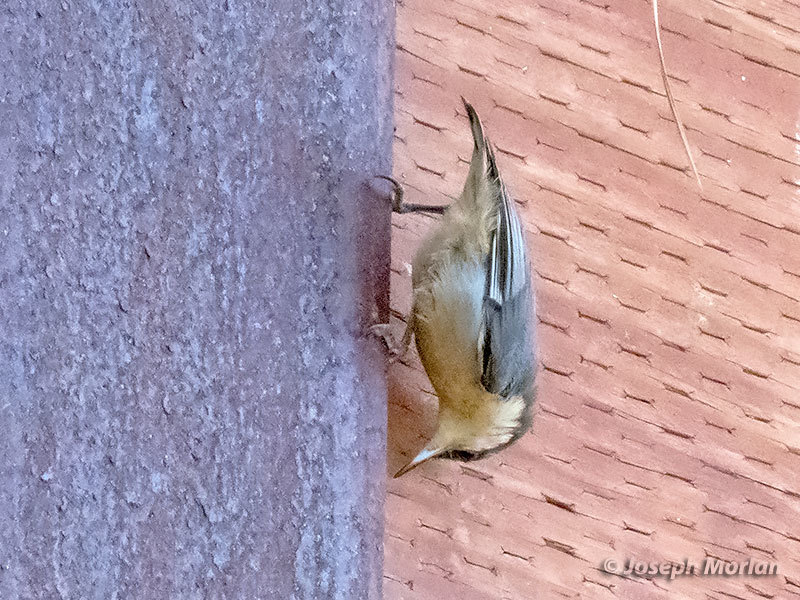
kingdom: Animalia
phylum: Chordata
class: Aves
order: Passeriformes
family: Sittidae
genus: Sitta
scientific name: Sitta pygmaea
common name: Pygmy nuthatch
